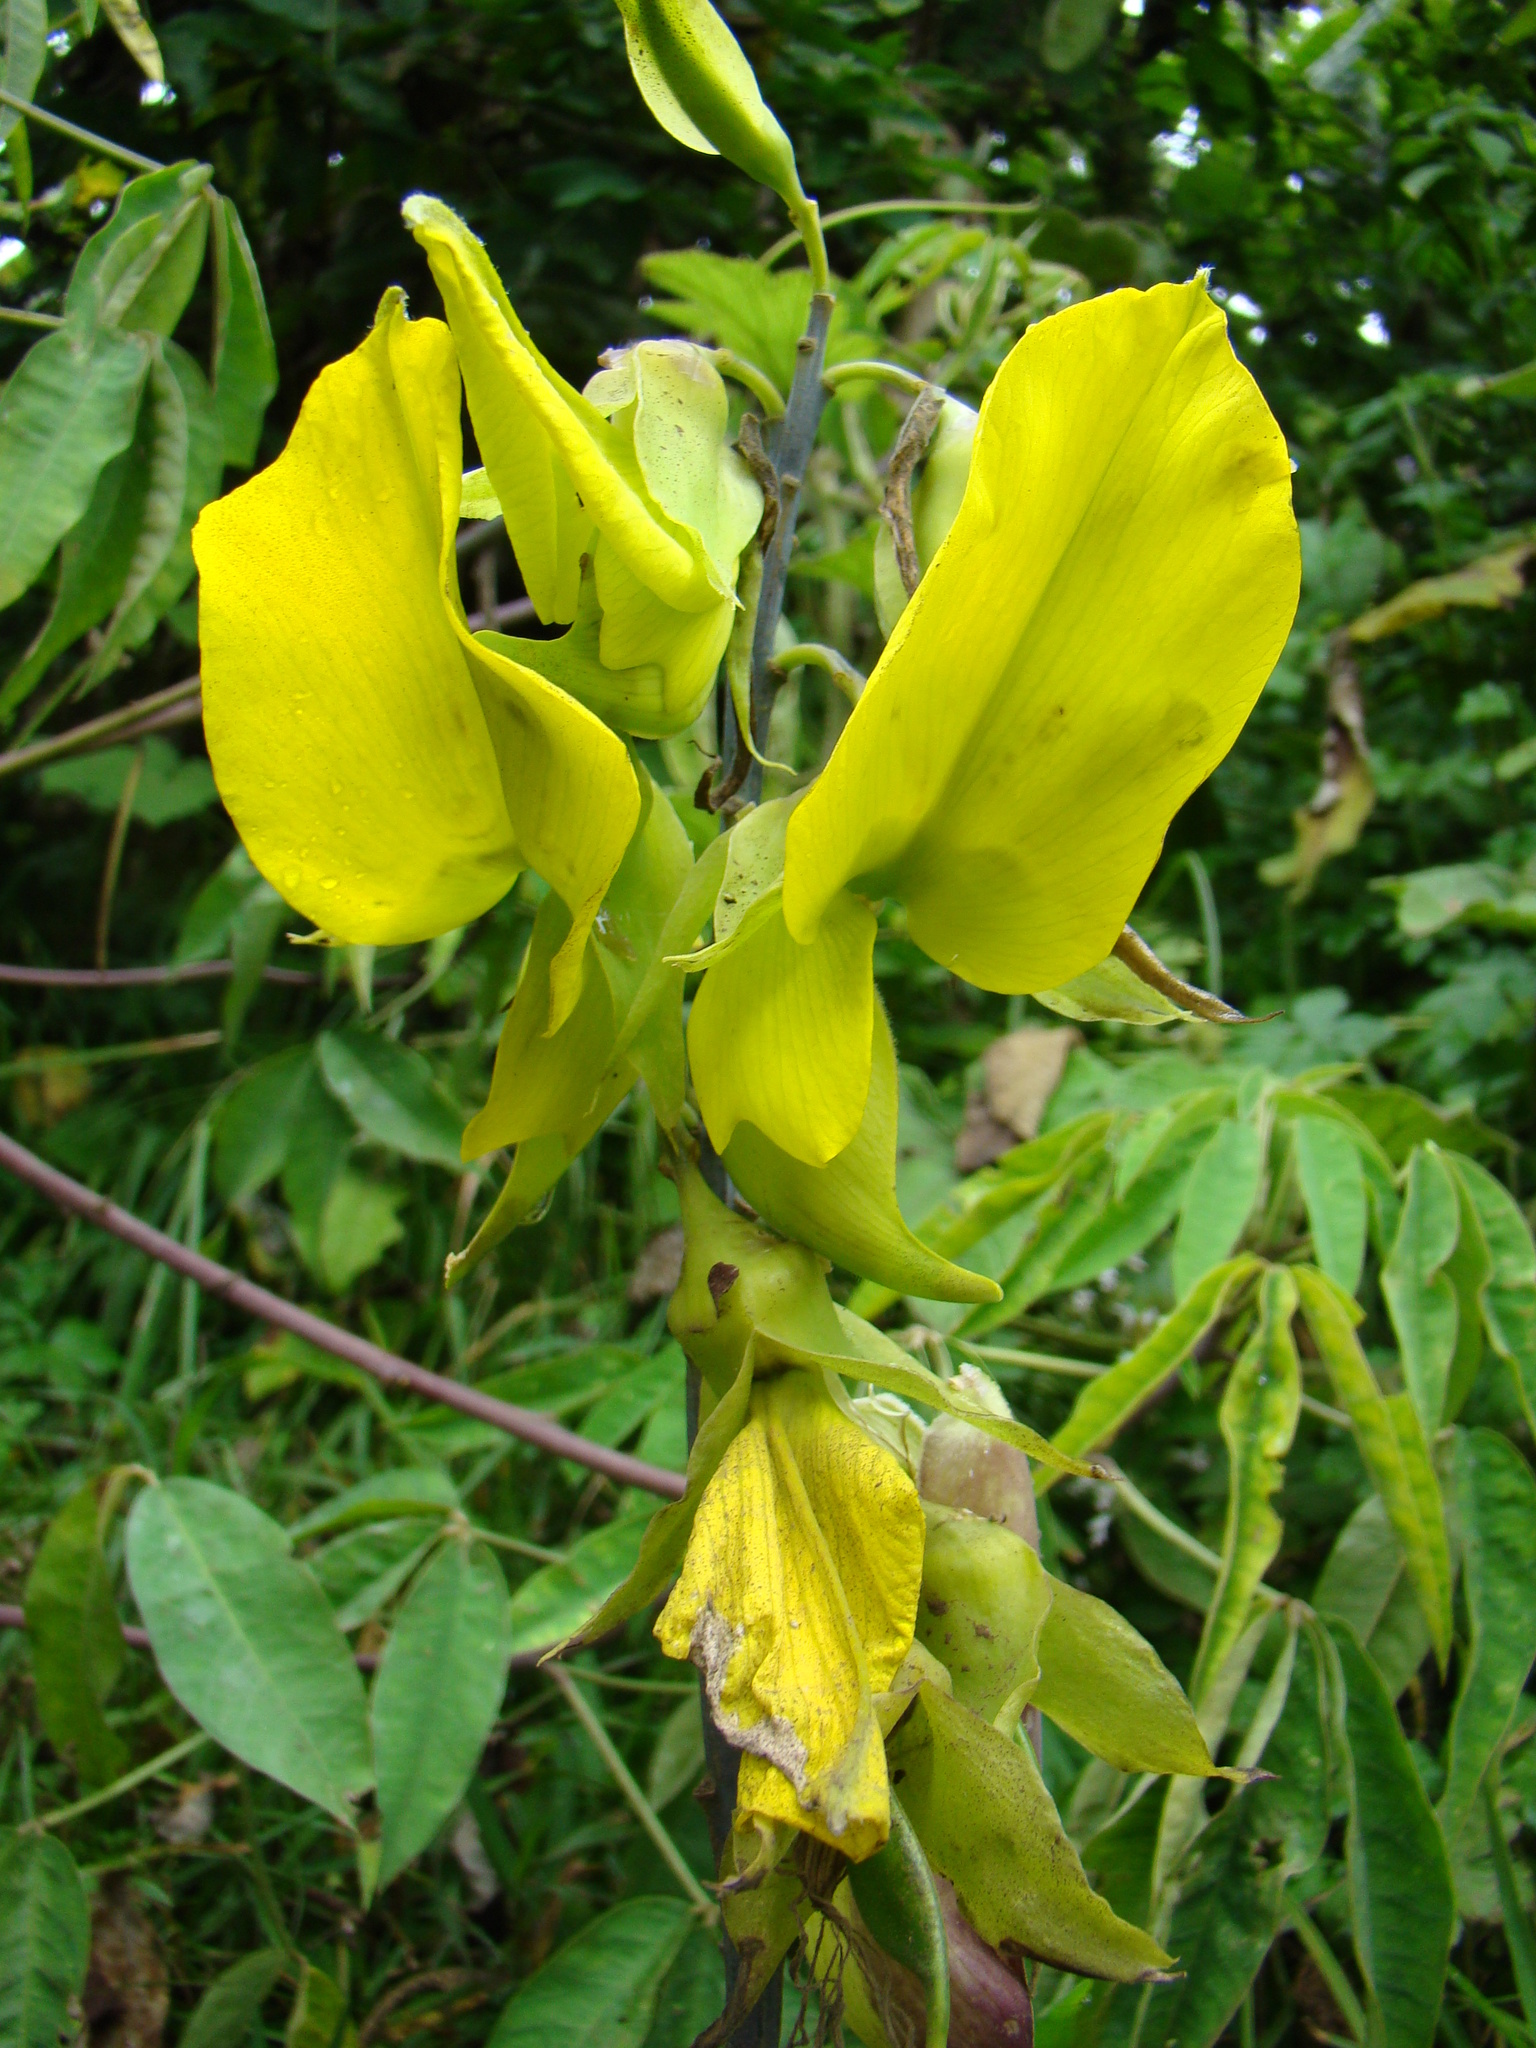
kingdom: Plantae
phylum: Tracheophyta
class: Magnoliopsida
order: Fabales
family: Fabaceae
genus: Crotalaria
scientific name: Crotalaria agatiflora
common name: Birdflower
